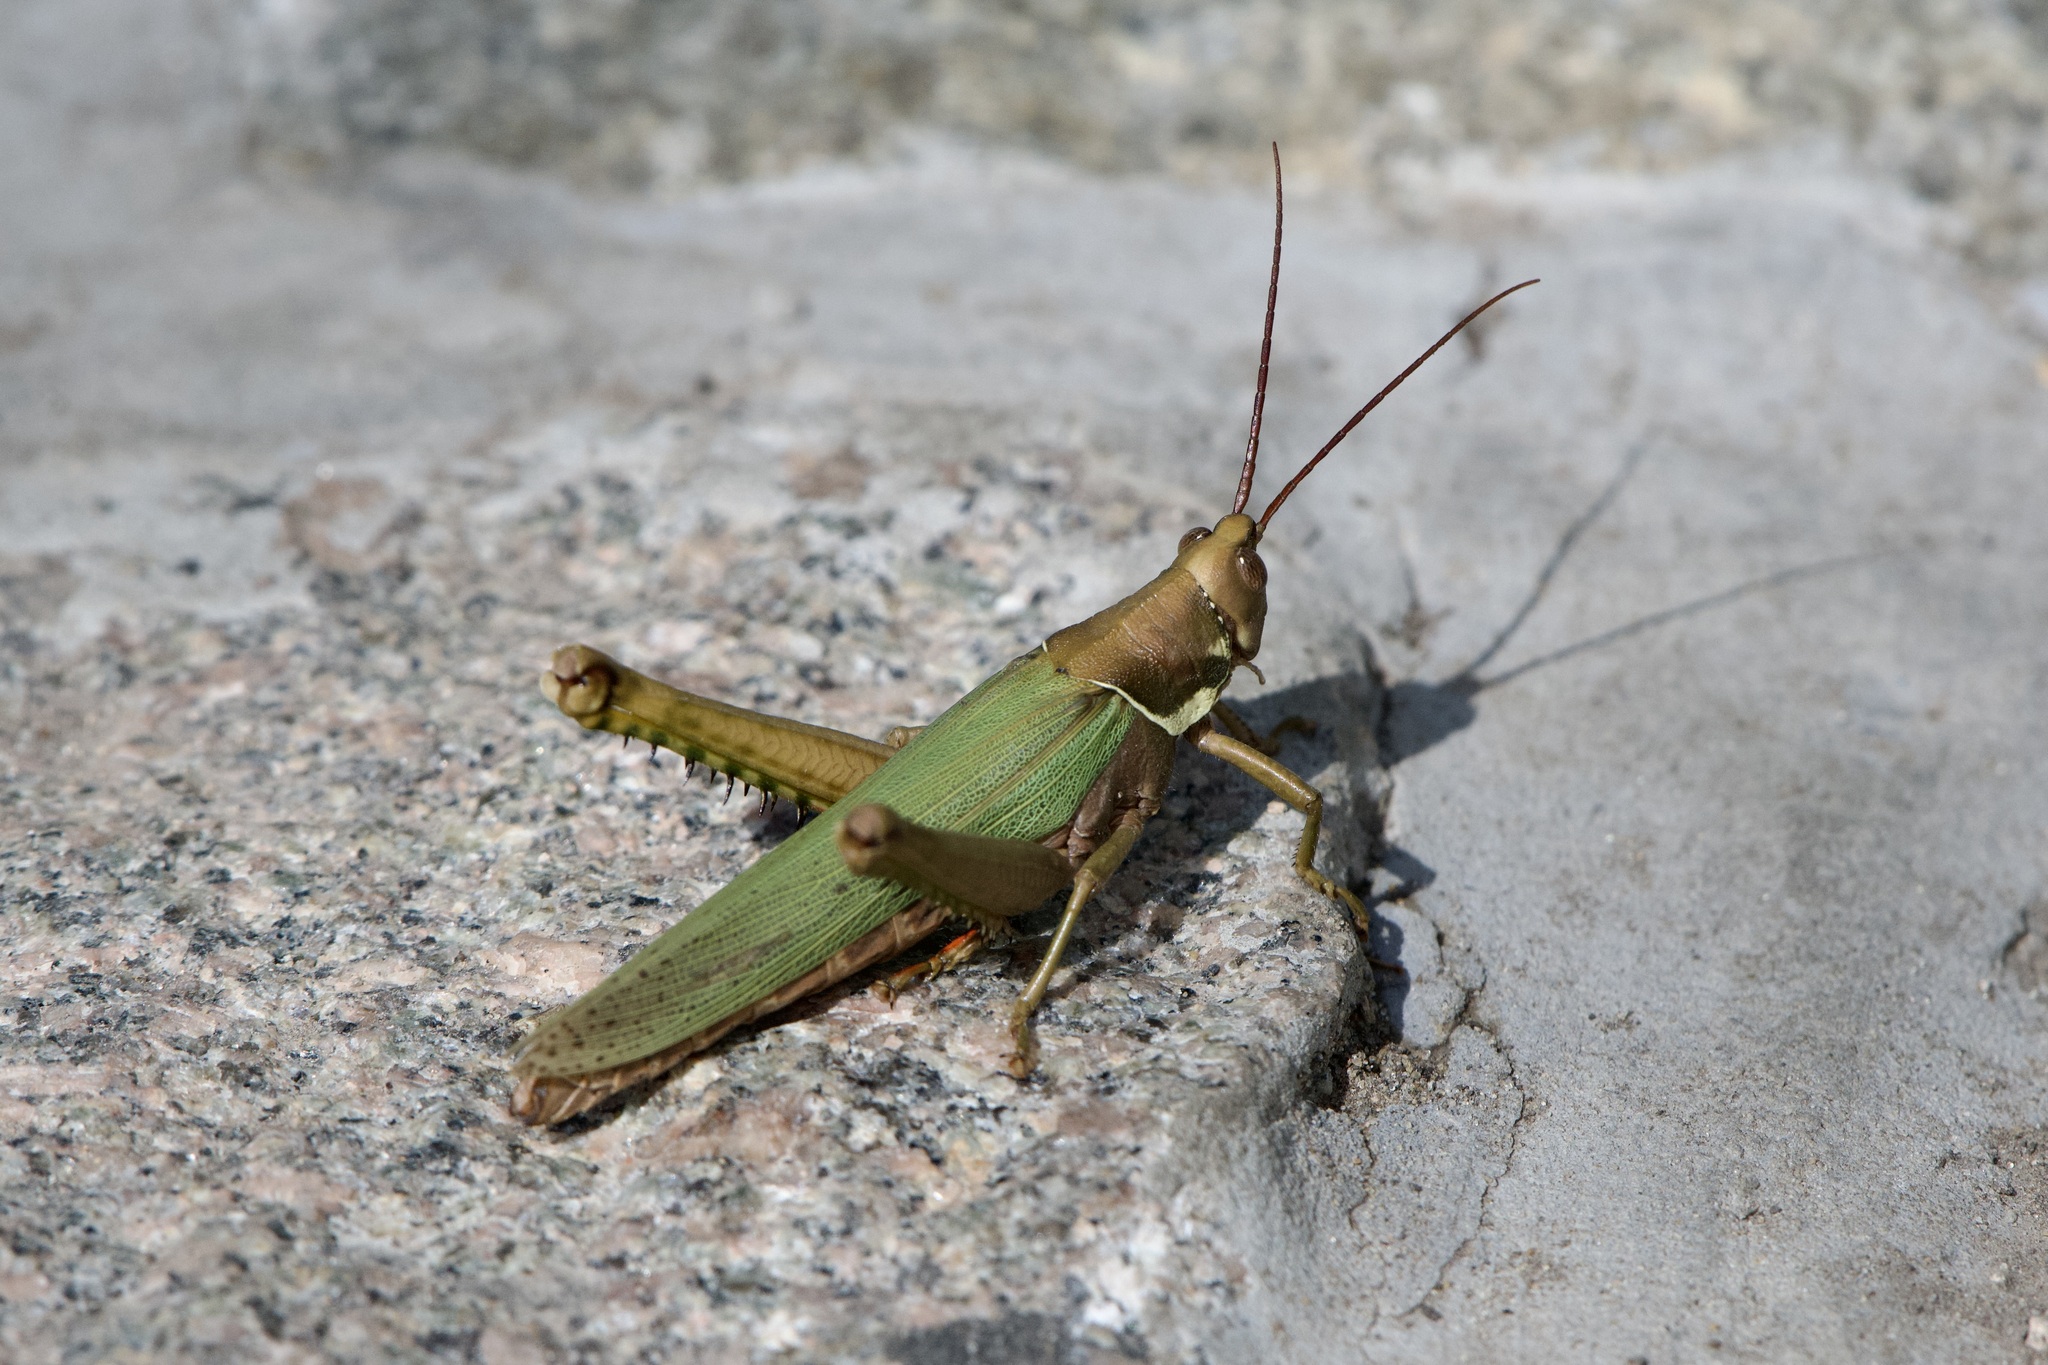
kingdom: Animalia
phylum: Arthropoda
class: Insecta
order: Orthoptera
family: Romaleidae
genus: Coryacris
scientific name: Coryacris angustipennis
